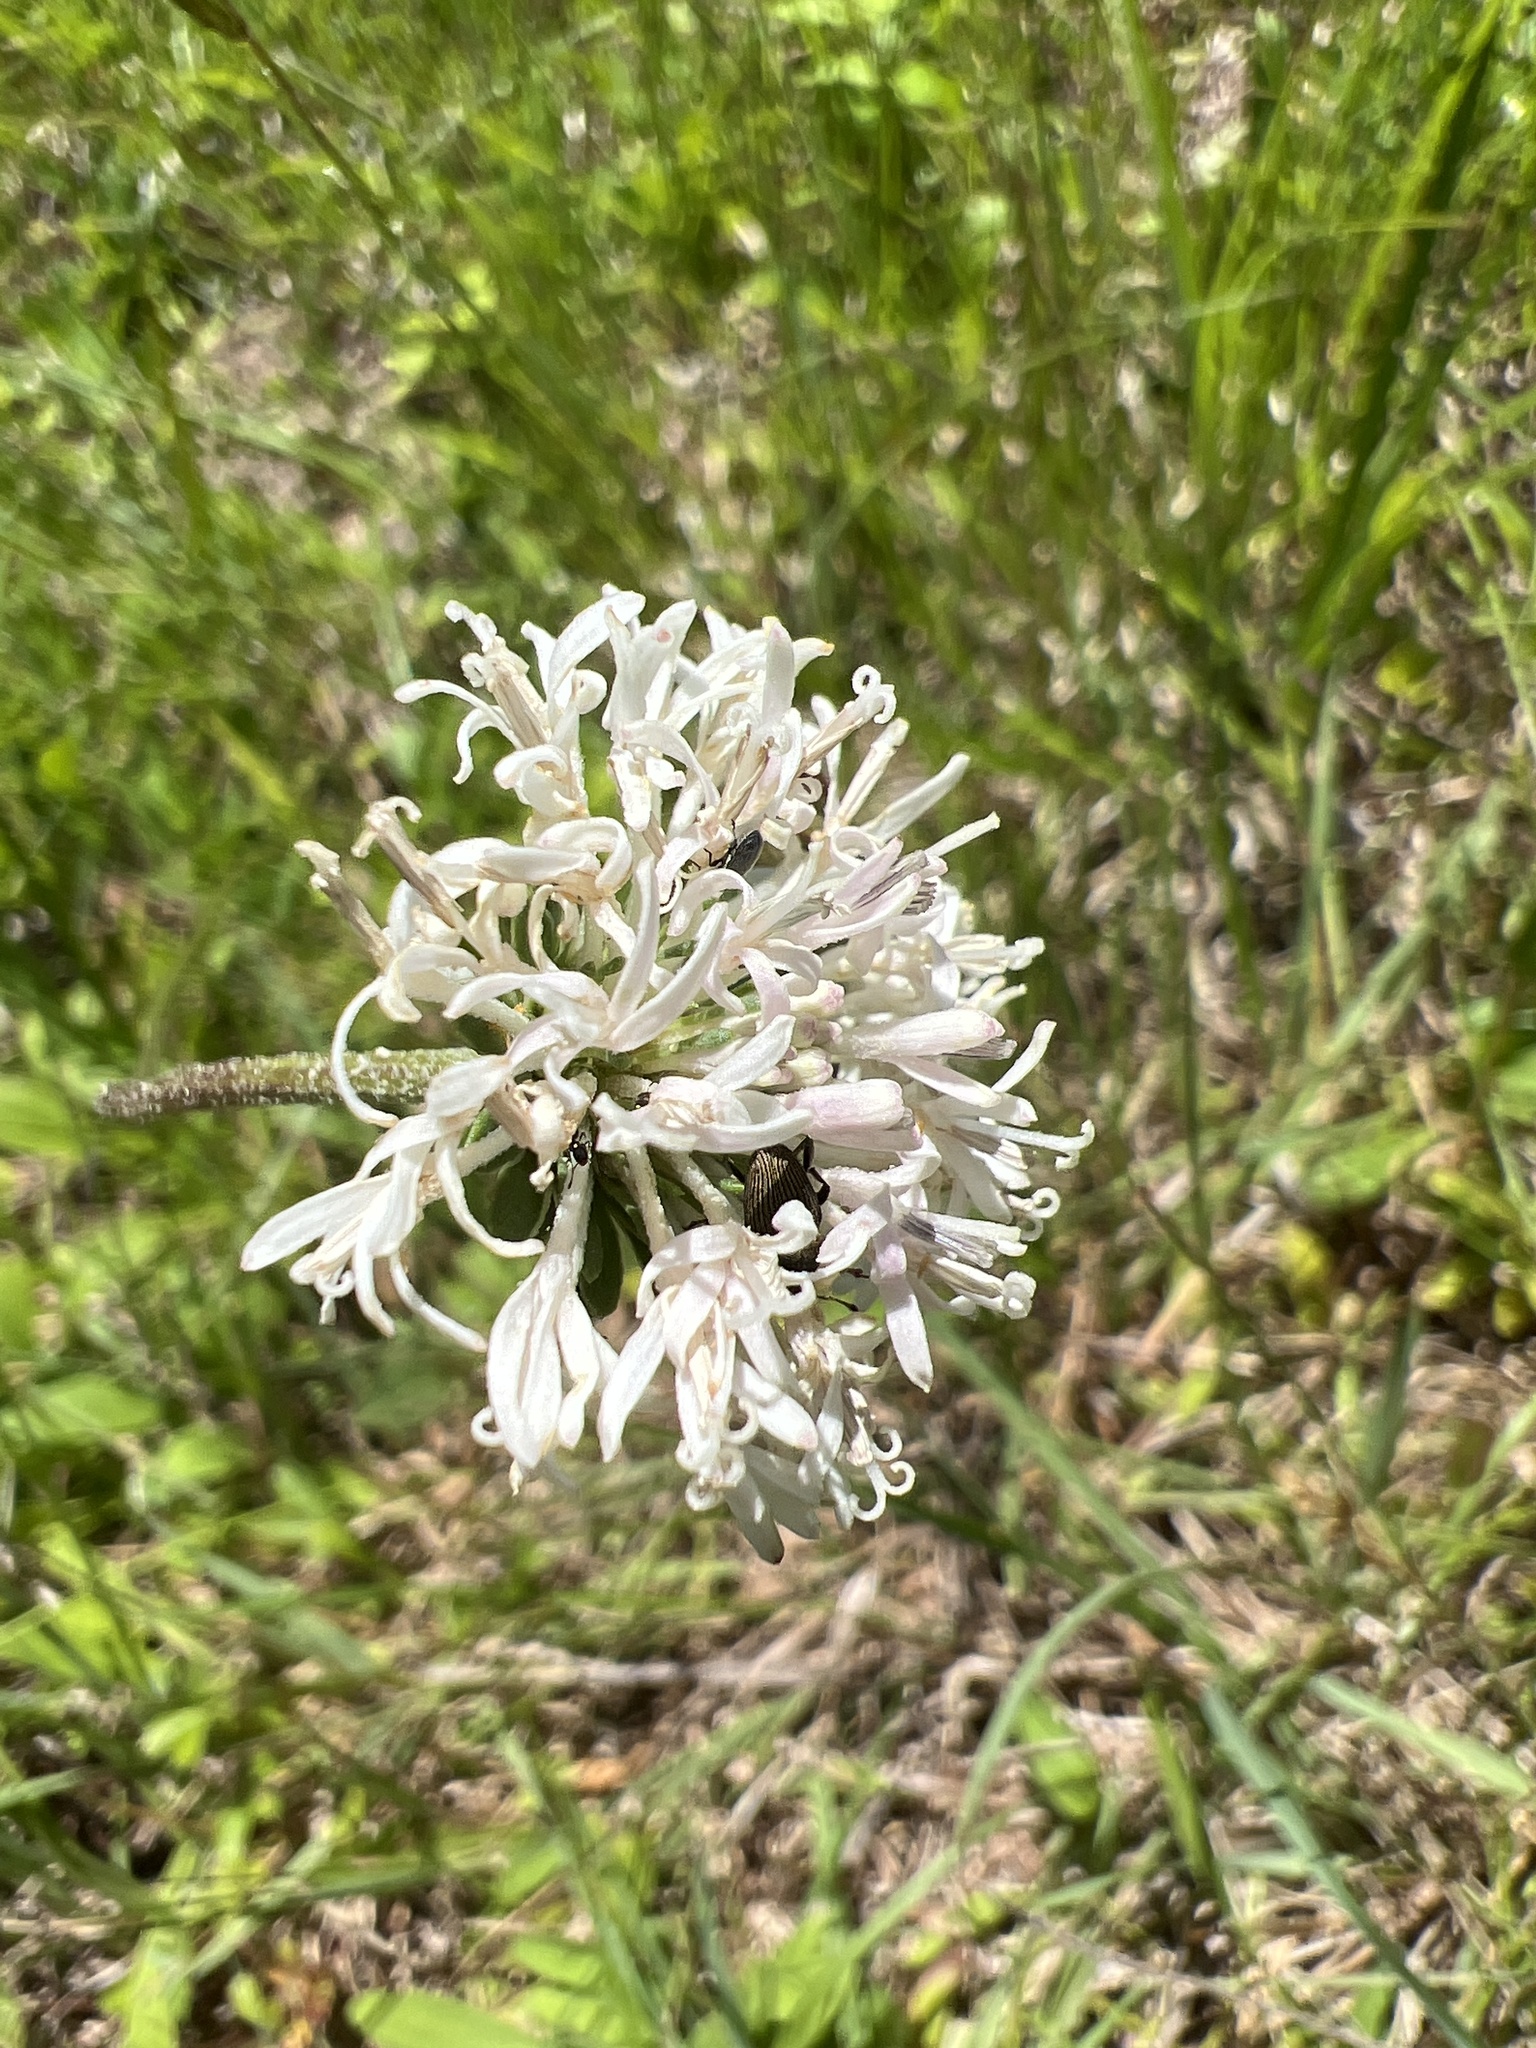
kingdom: Plantae
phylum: Tracheophyta
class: Magnoliopsida
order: Asterales
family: Asteraceae
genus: Marshallia
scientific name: Marshallia obovata
